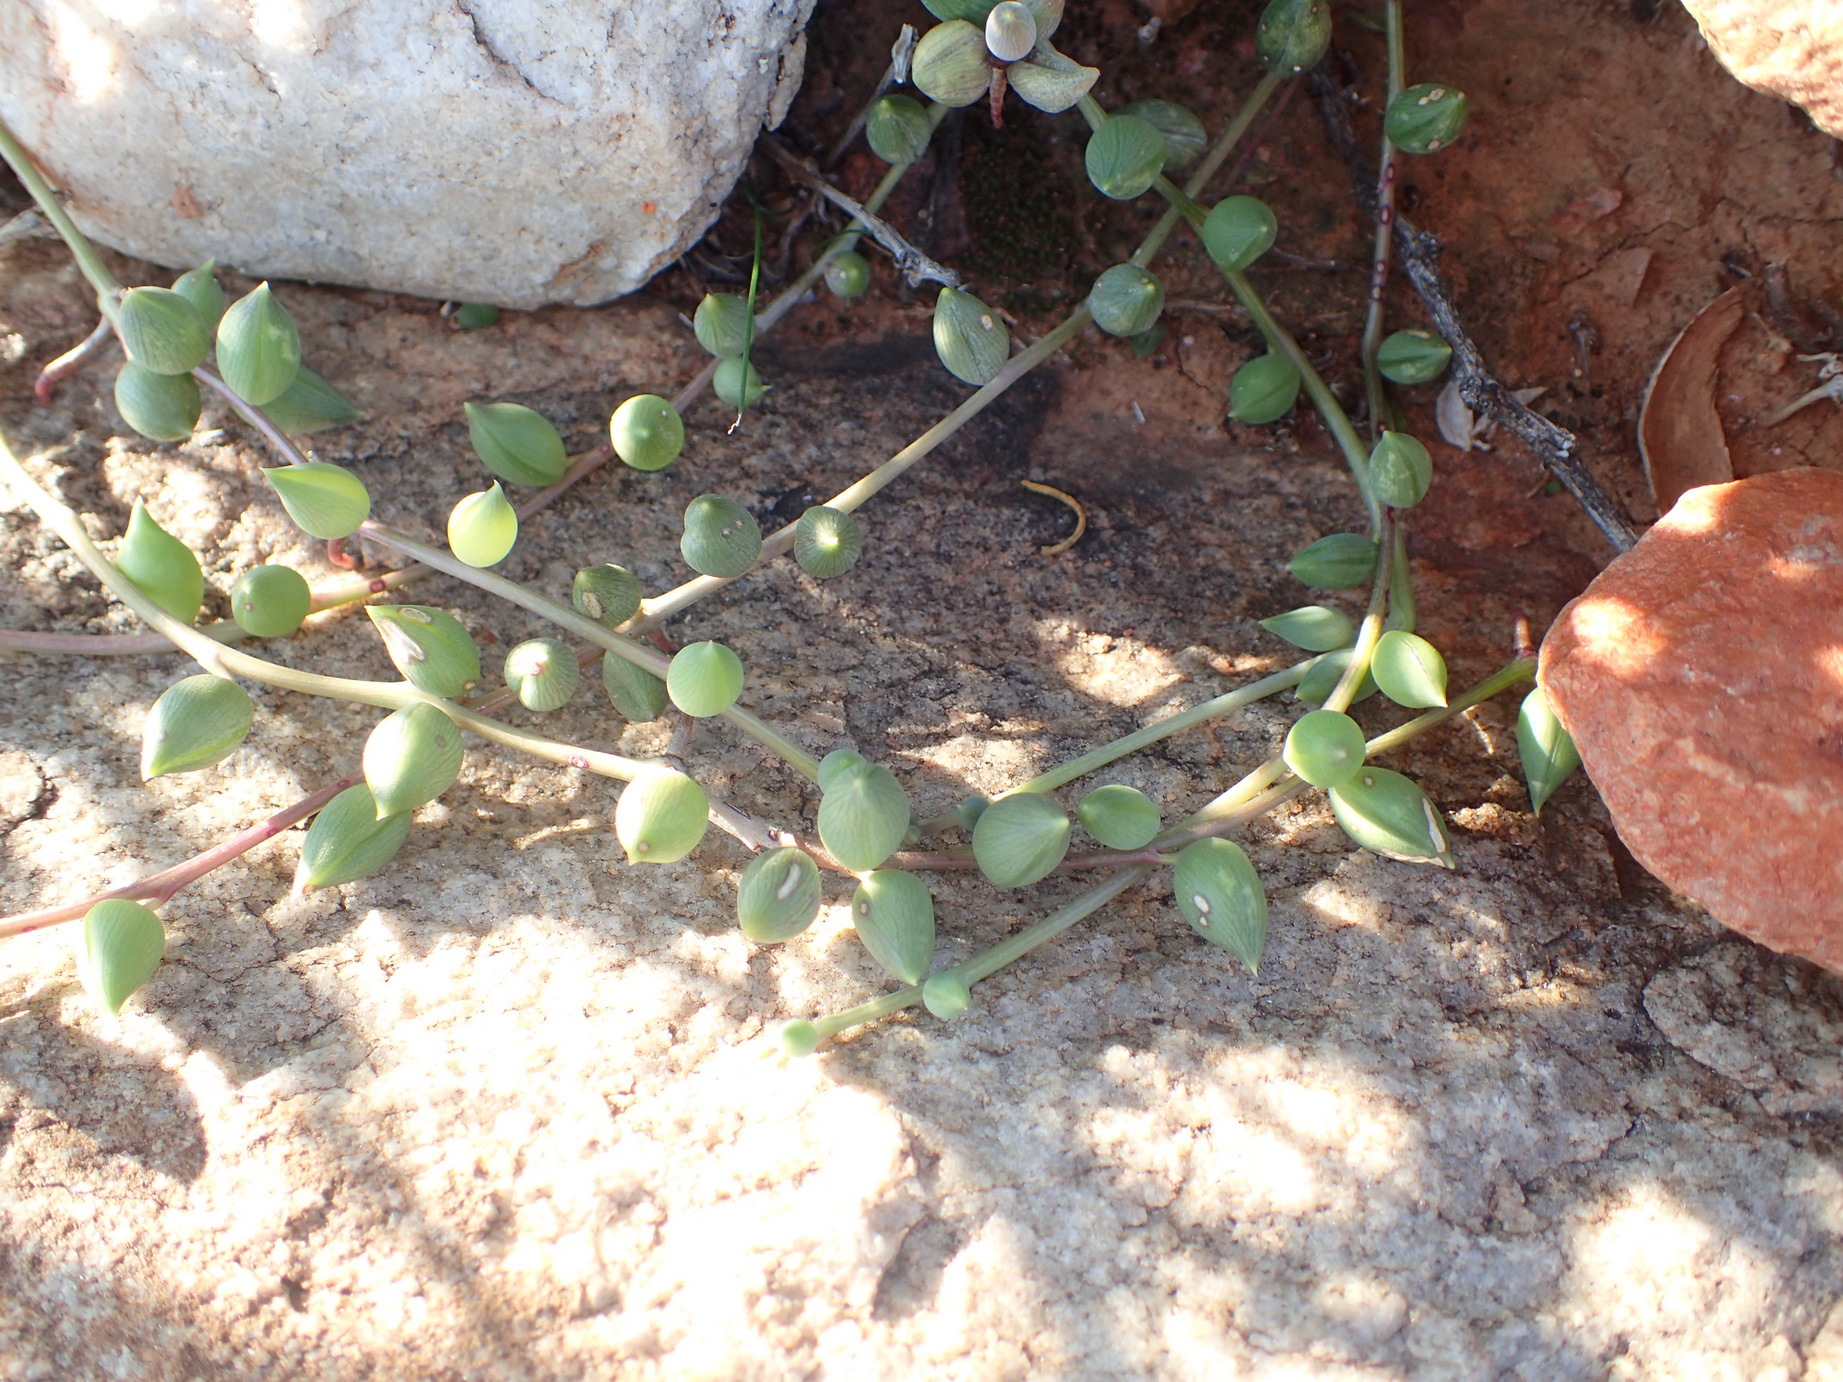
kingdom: Plantae
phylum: Tracheophyta
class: Magnoliopsida
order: Asterales
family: Asteraceae
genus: Curio
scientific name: Curio radicans
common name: Creeping-berry
